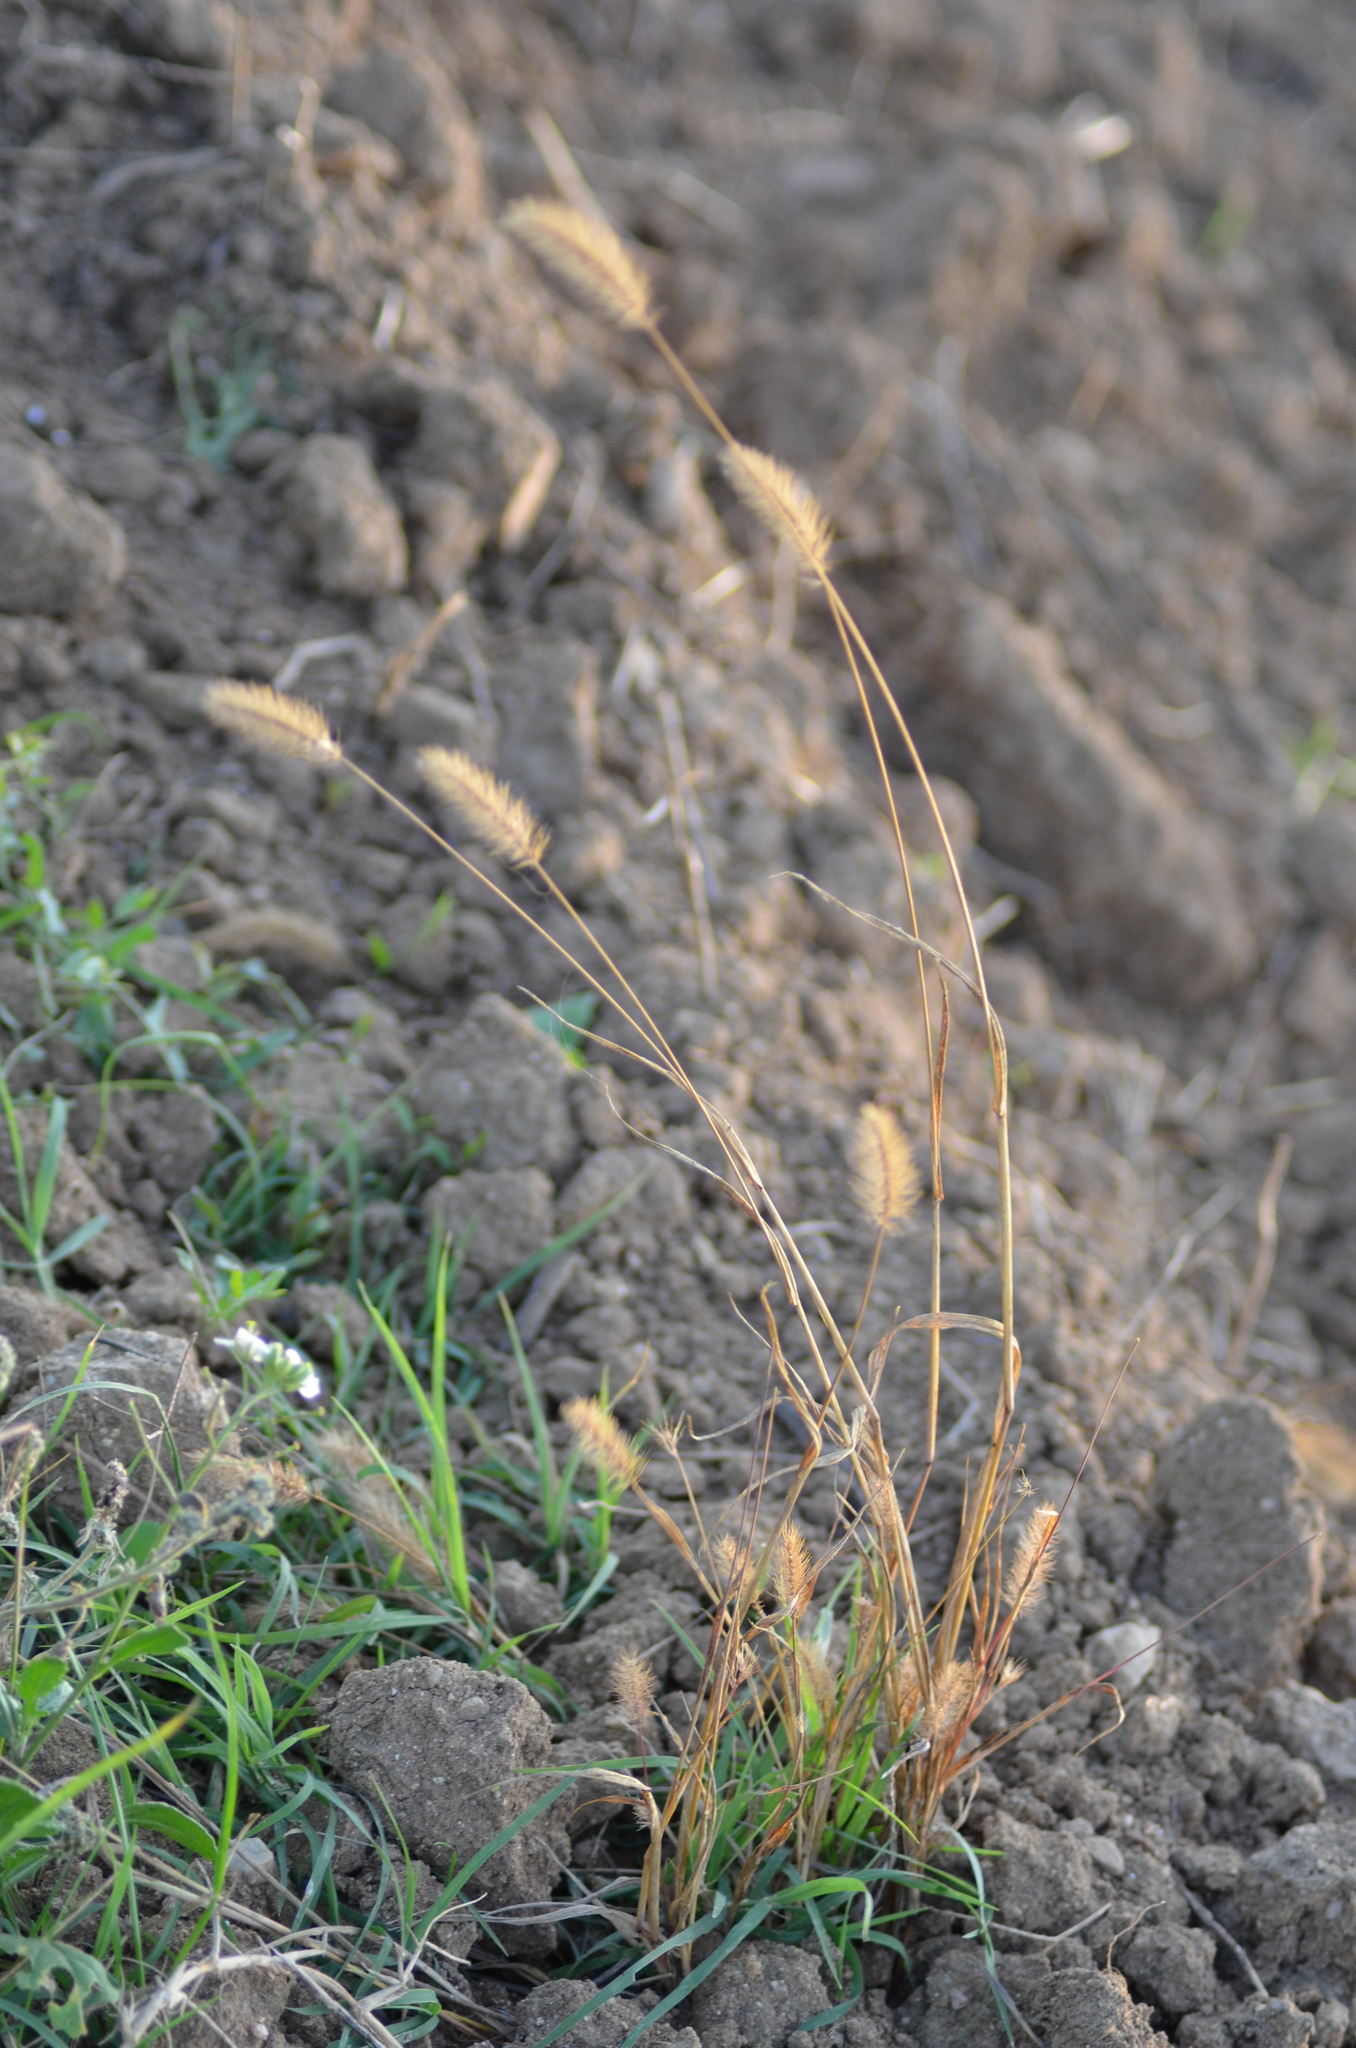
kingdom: Plantae
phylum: Tracheophyta
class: Liliopsida
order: Poales
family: Poaceae
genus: Setaria
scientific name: Setaria viridis
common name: Green bristlegrass
